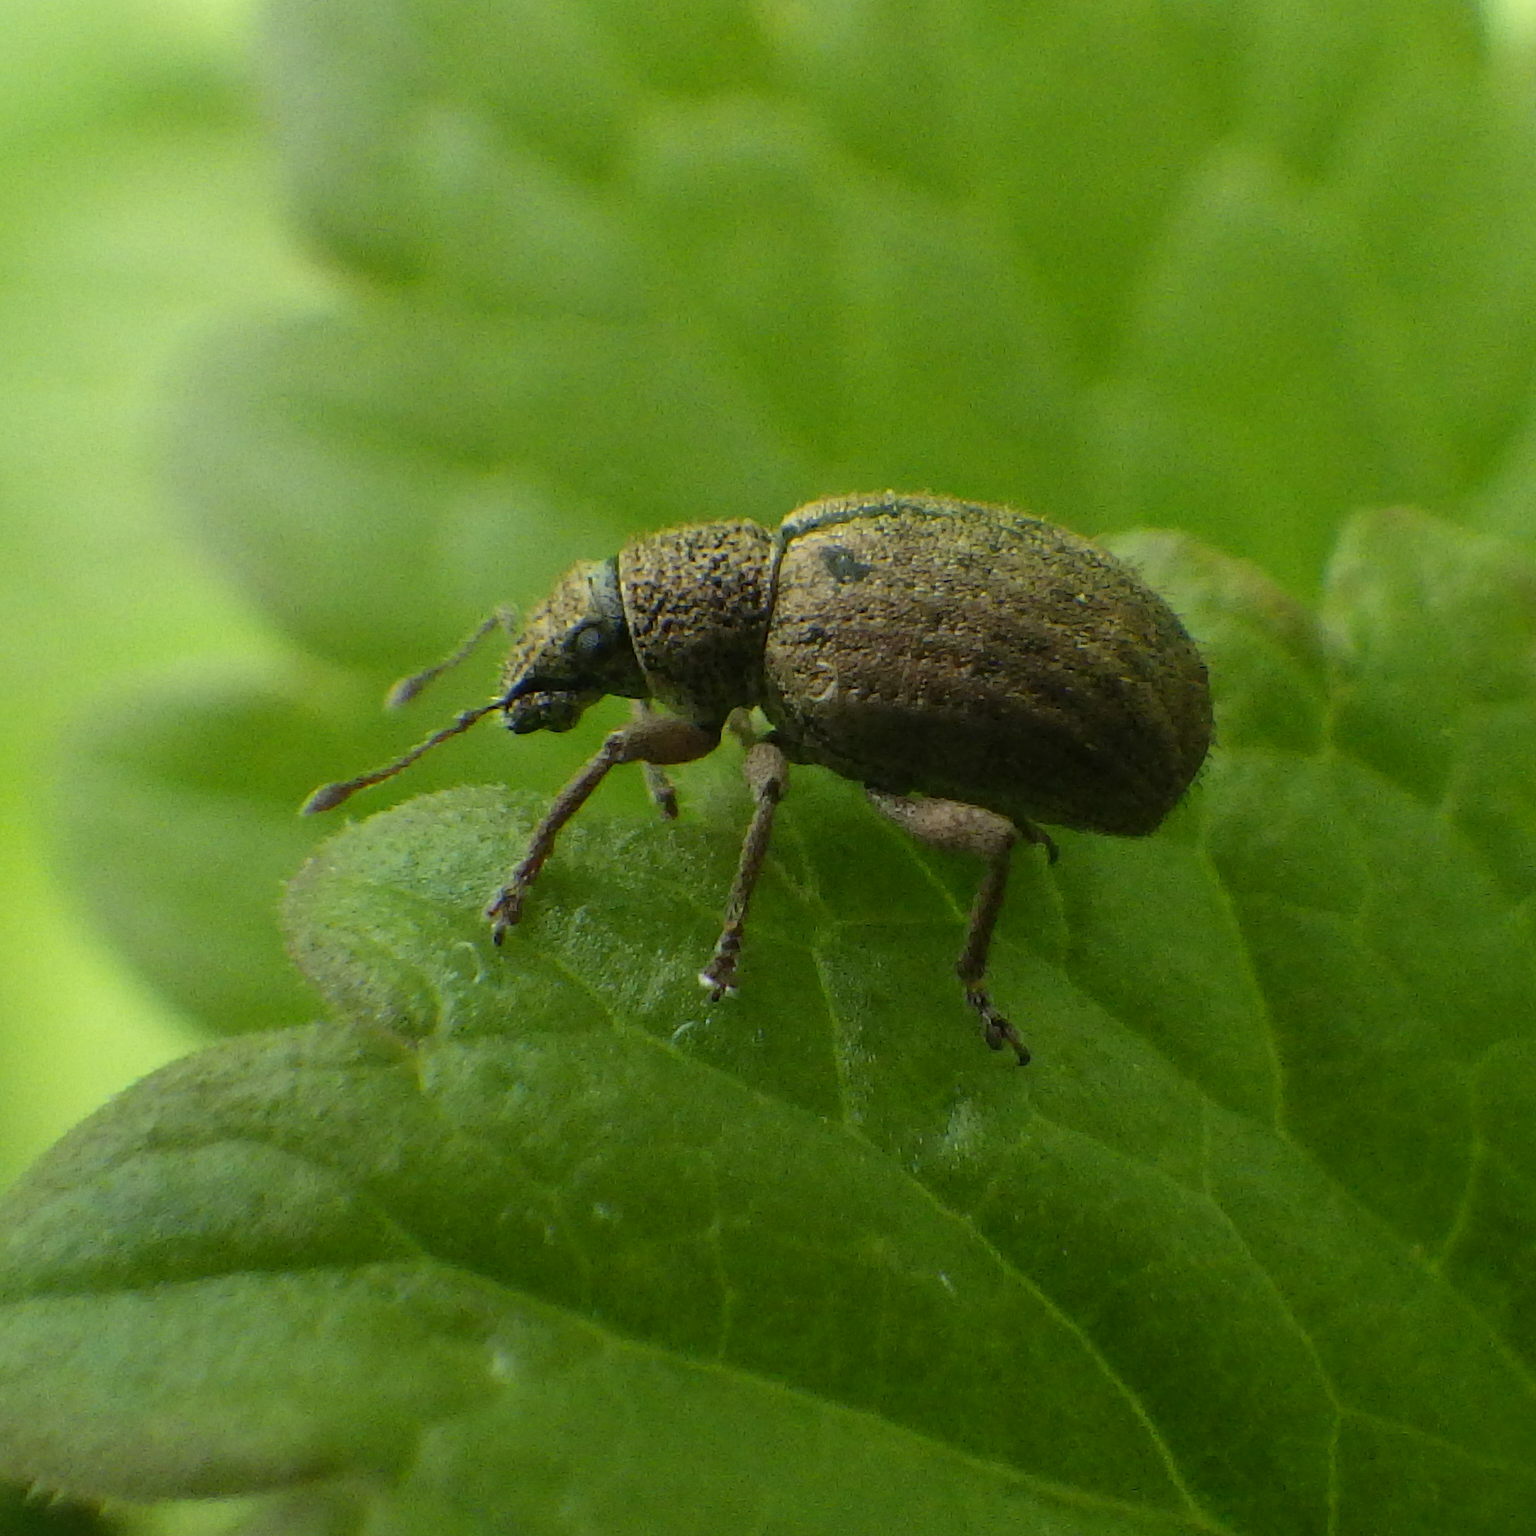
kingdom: Animalia
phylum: Arthropoda
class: Insecta
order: Coleoptera
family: Curculionidae
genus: Strophosoma
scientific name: Strophosoma melanogrammum
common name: Weevil
